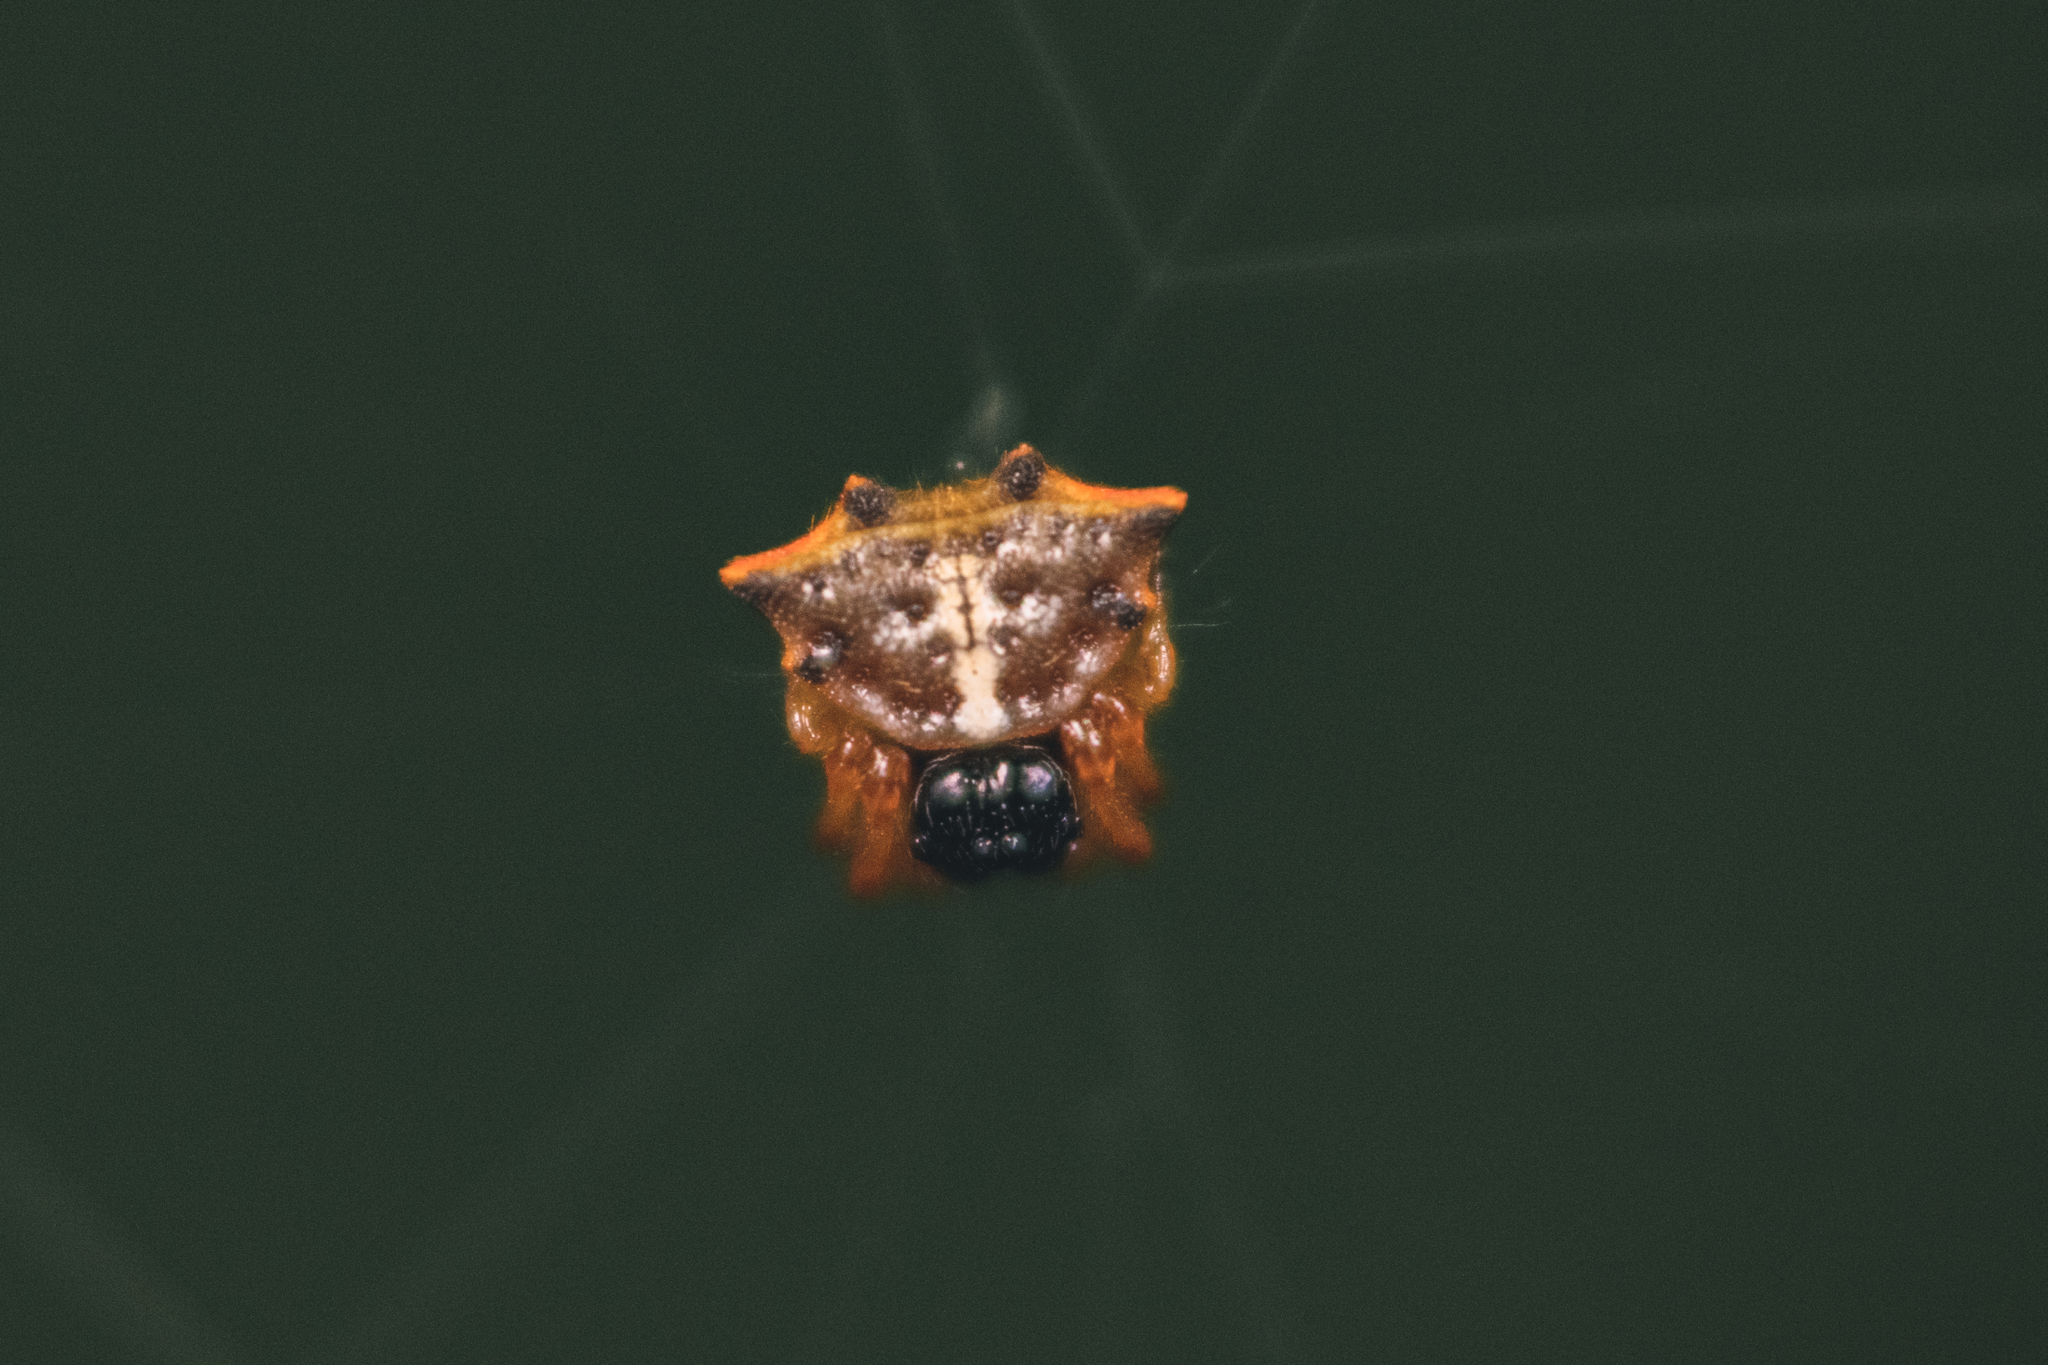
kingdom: Animalia
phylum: Arthropoda
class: Arachnida
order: Araneae
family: Araneidae
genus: Macracantha
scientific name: Macracantha hasselti
